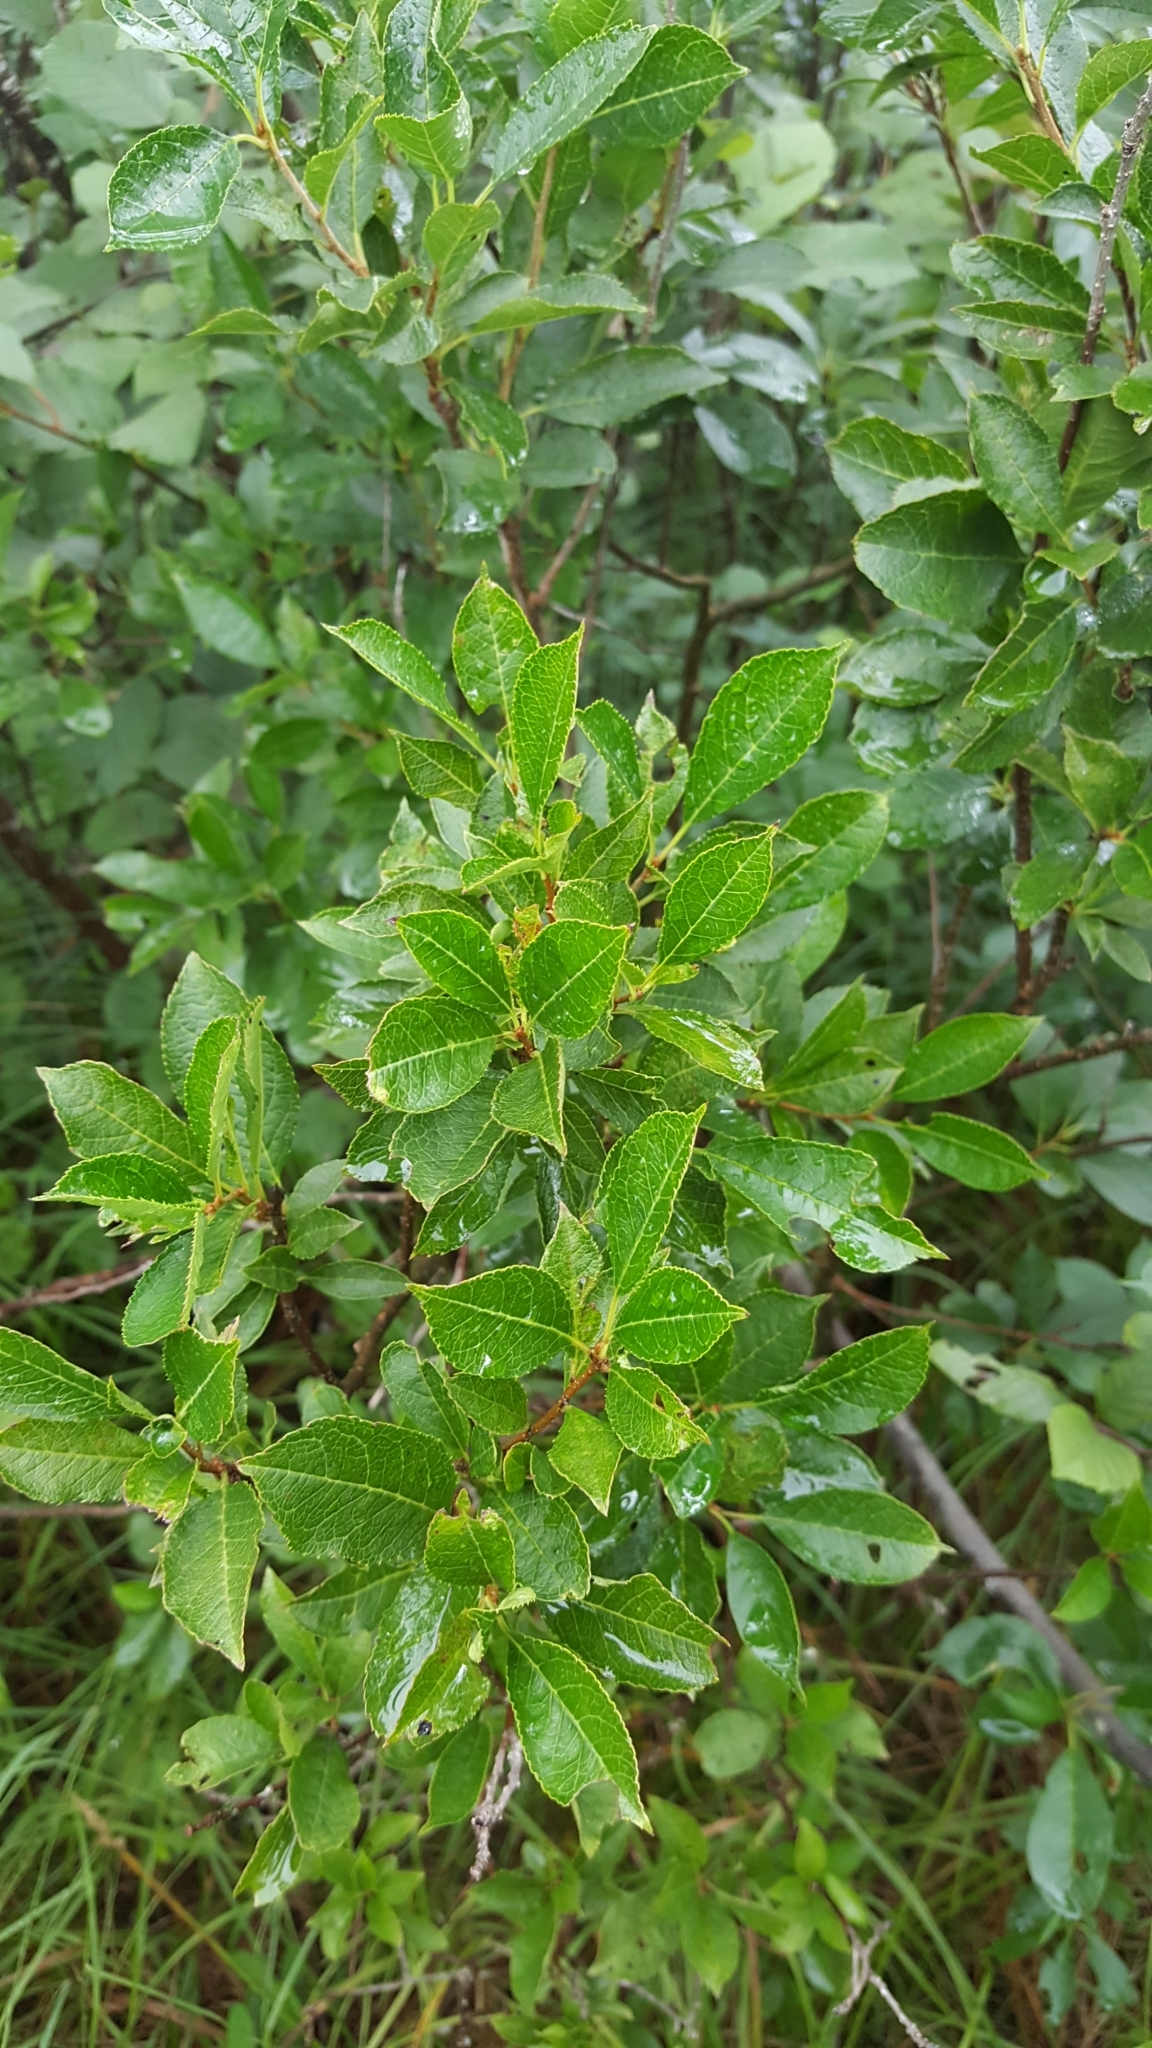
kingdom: Plantae
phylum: Tracheophyta
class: Magnoliopsida
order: Aquifoliales
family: Aquifoliaceae
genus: Ilex
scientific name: Ilex verticillata
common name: Virginia winterberry
